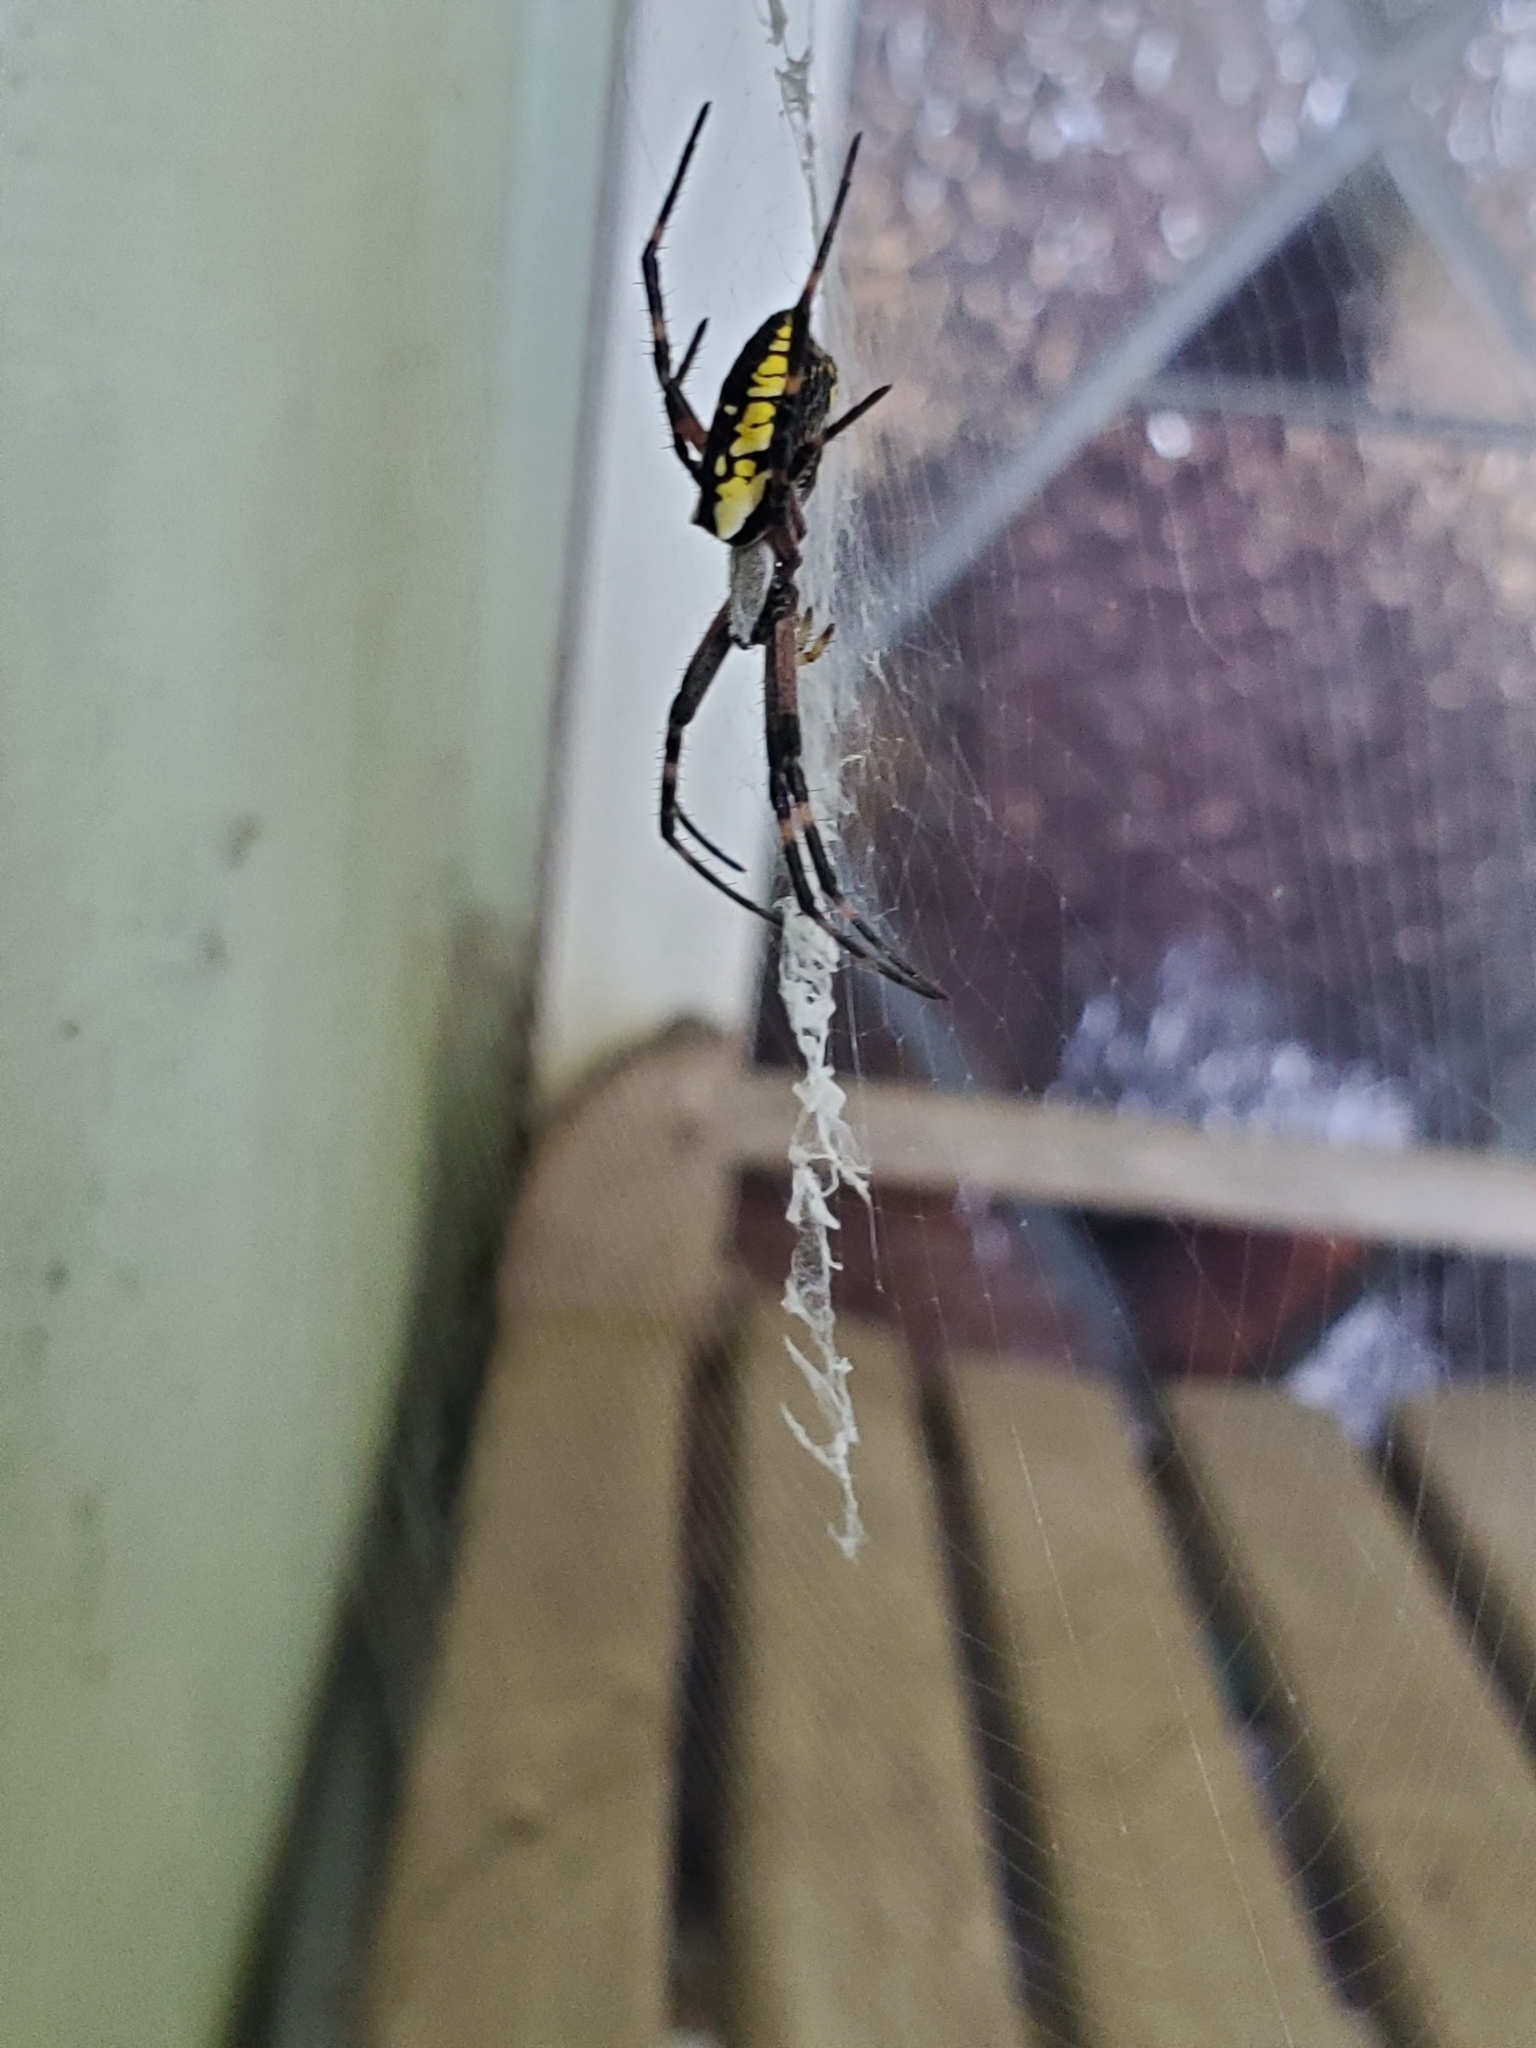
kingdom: Animalia
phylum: Arthropoda
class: Arachnida
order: Araneae
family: Araneidae
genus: Argiope
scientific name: Argiope aurantia
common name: Orb weavers
